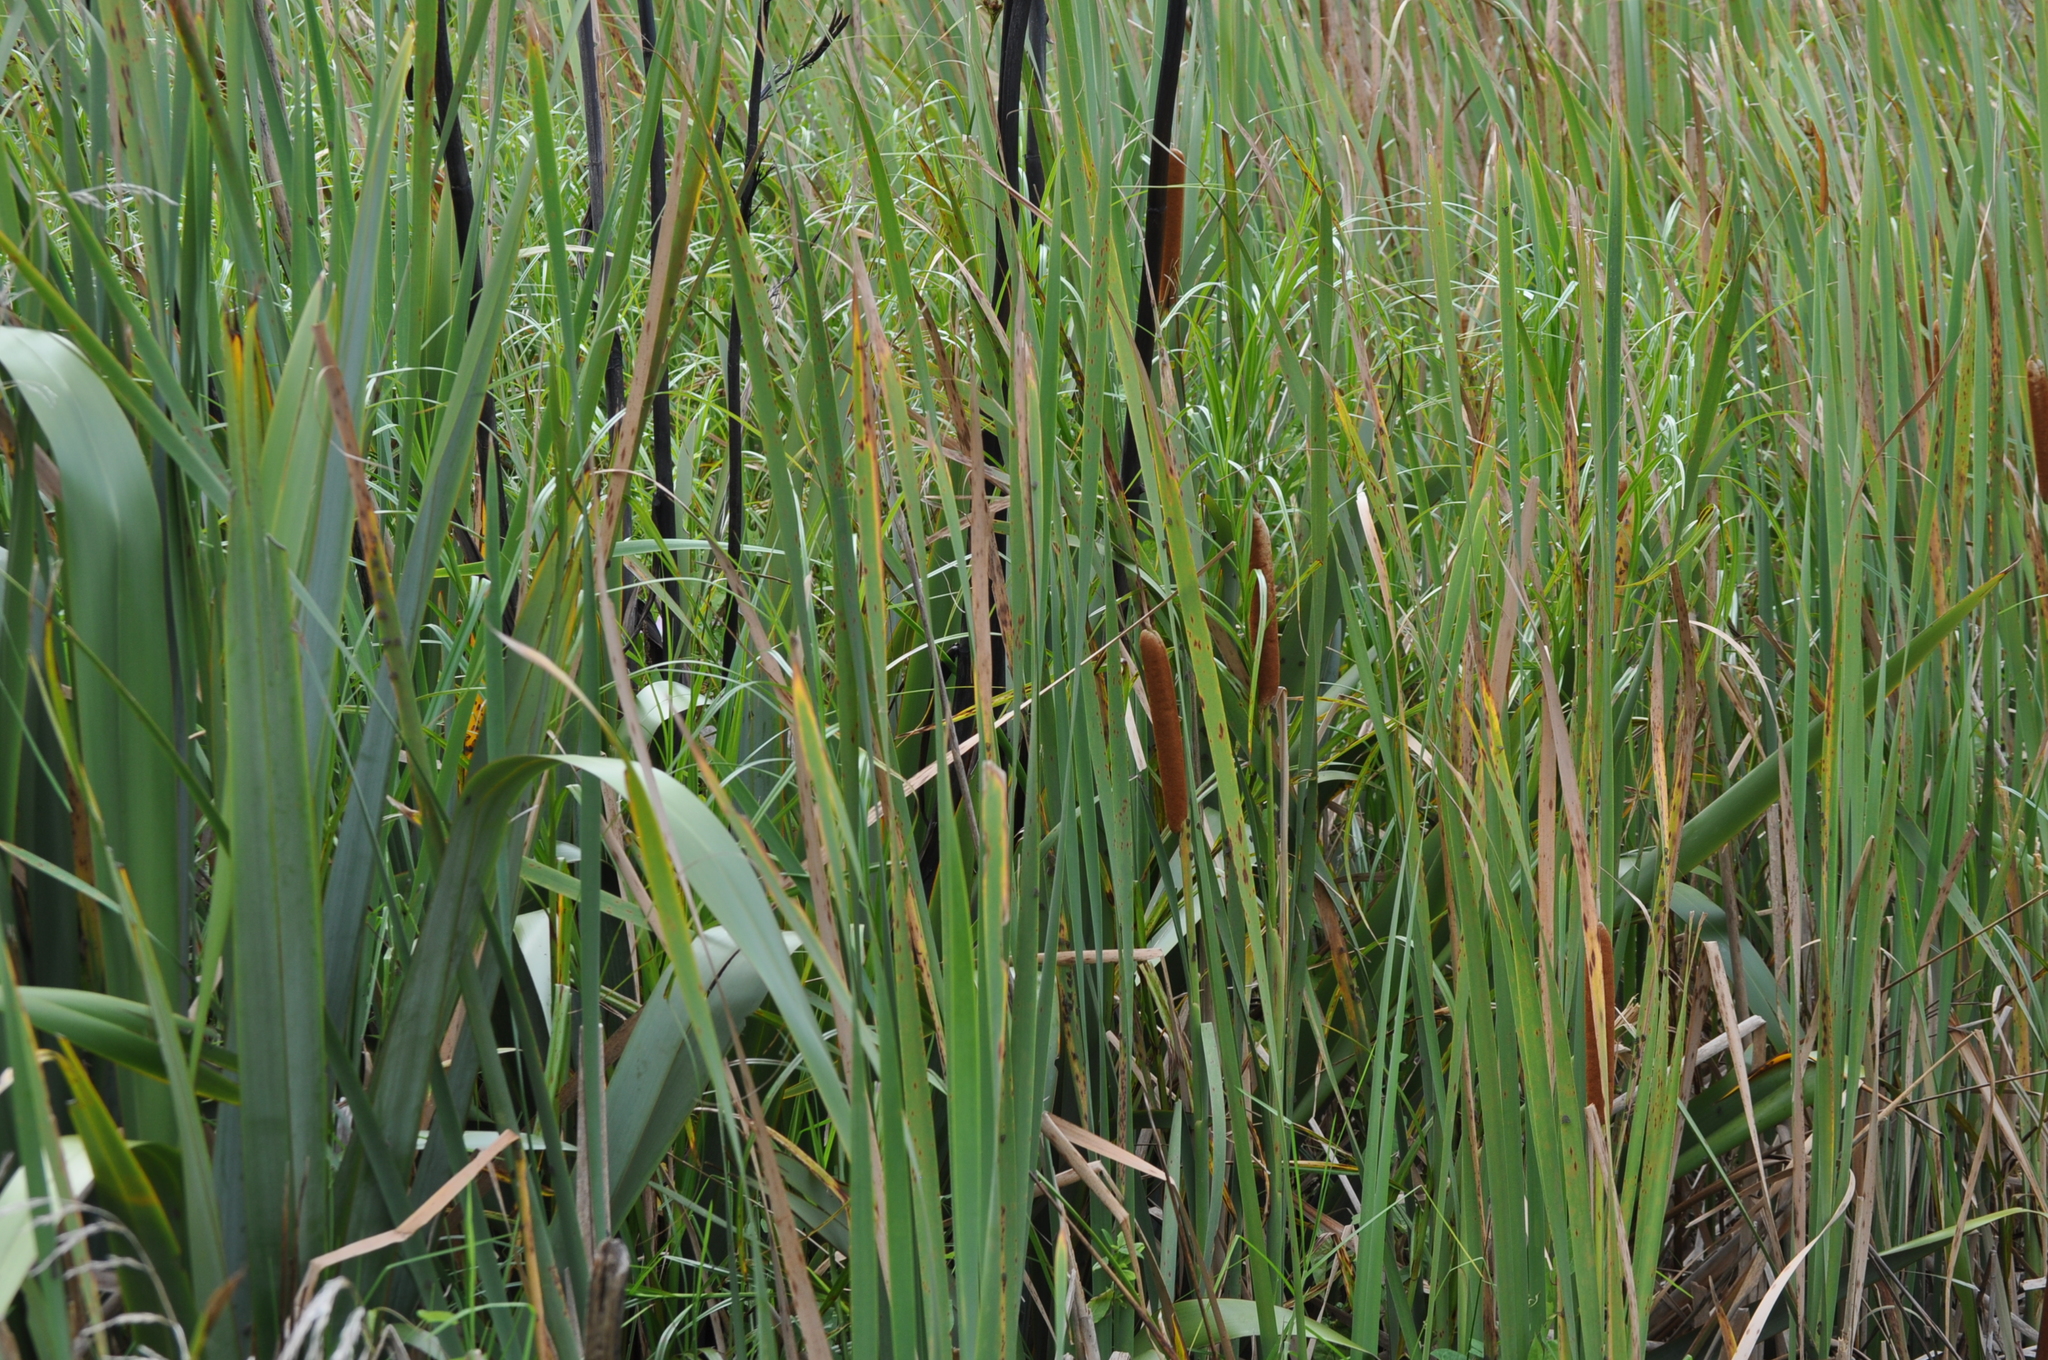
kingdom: Plantae
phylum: Tracheophyta
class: Liliopsida
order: Poales
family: Typhaceae
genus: Typha
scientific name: Typha orientalis
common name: Bullrush
